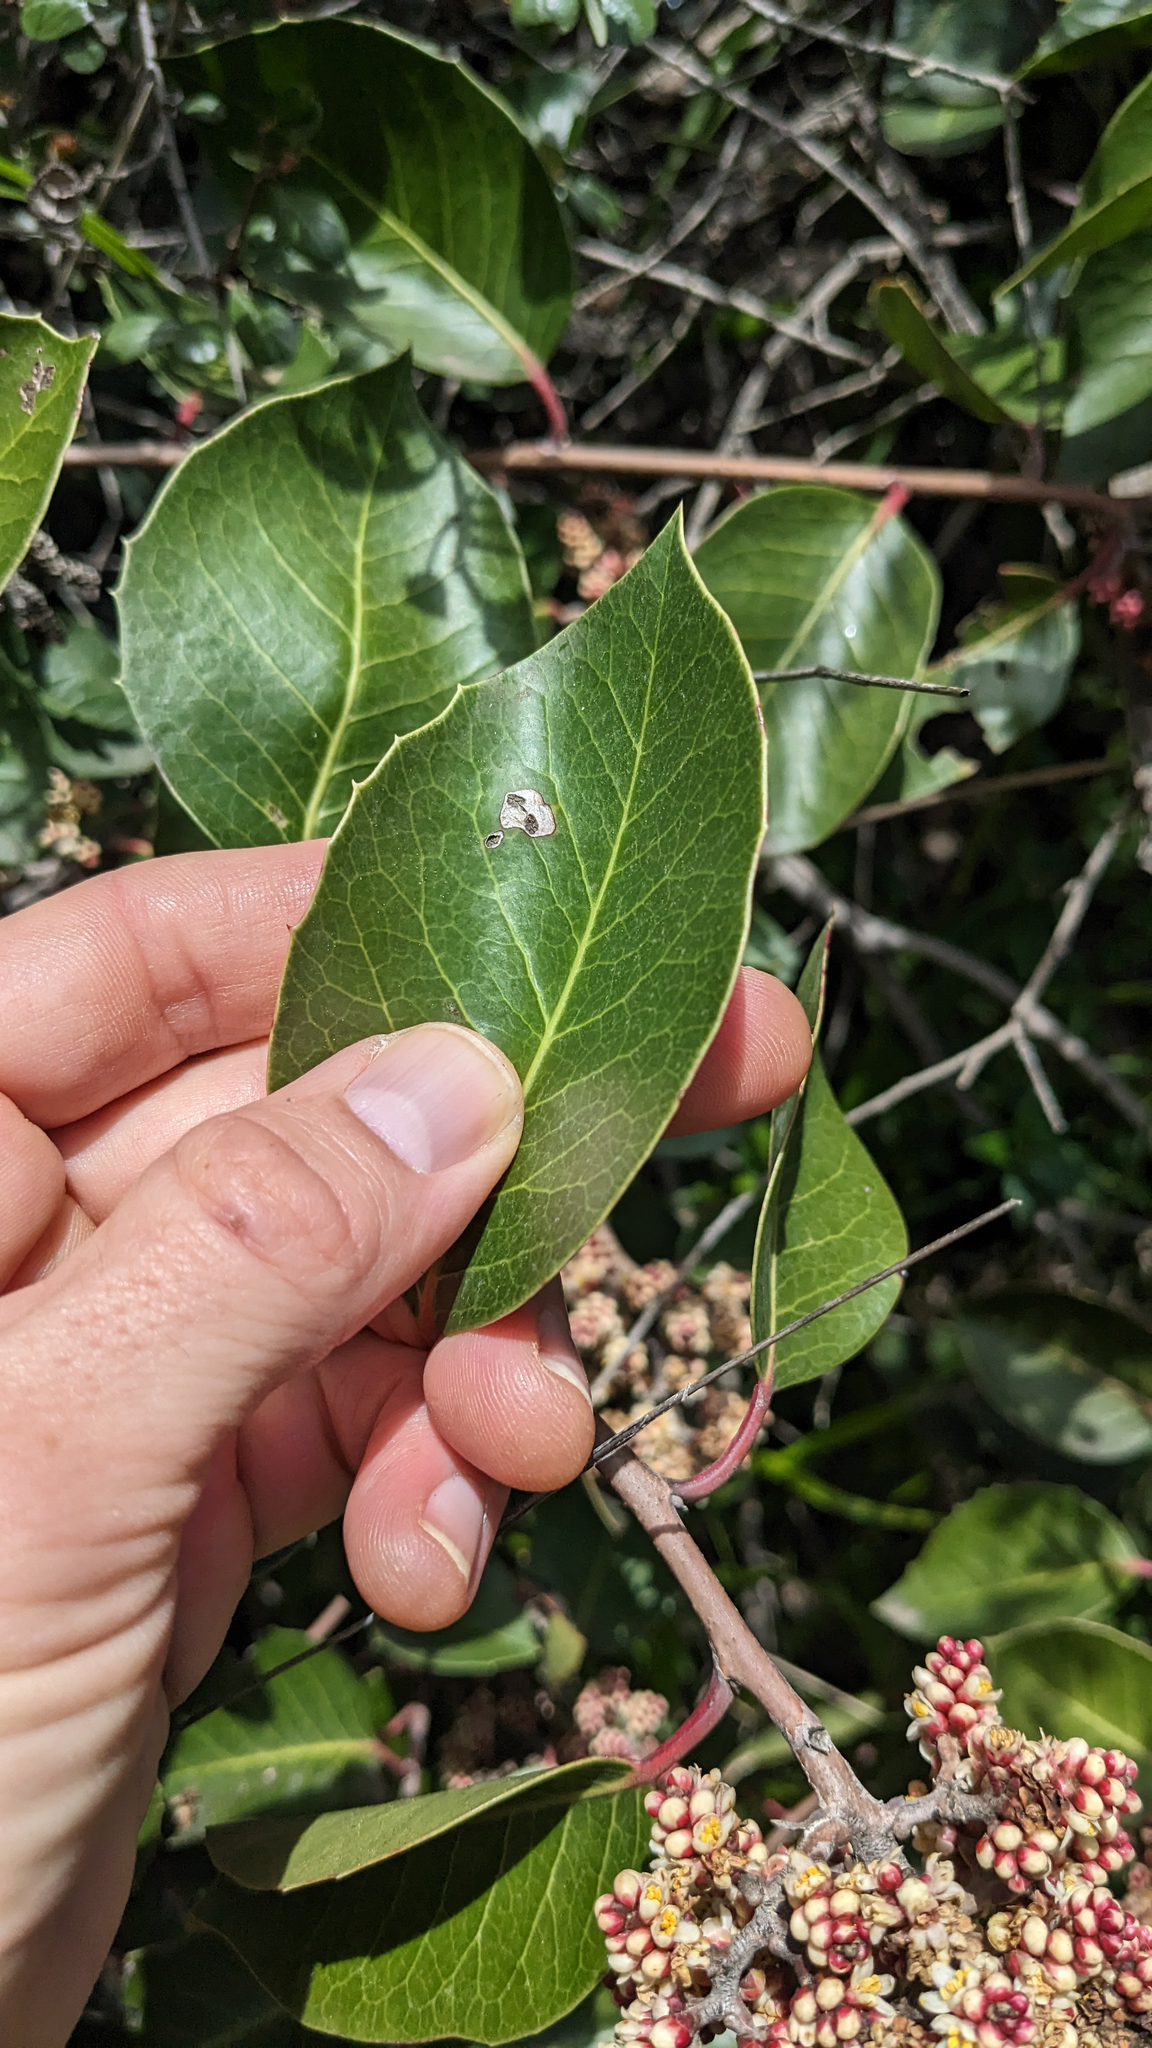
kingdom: Plantae
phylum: Tracheophyta
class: Magnoliopsida
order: Sapindales
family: Anacardiaceae
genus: Rhus
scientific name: Rhus ovata
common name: Sugar sumac
